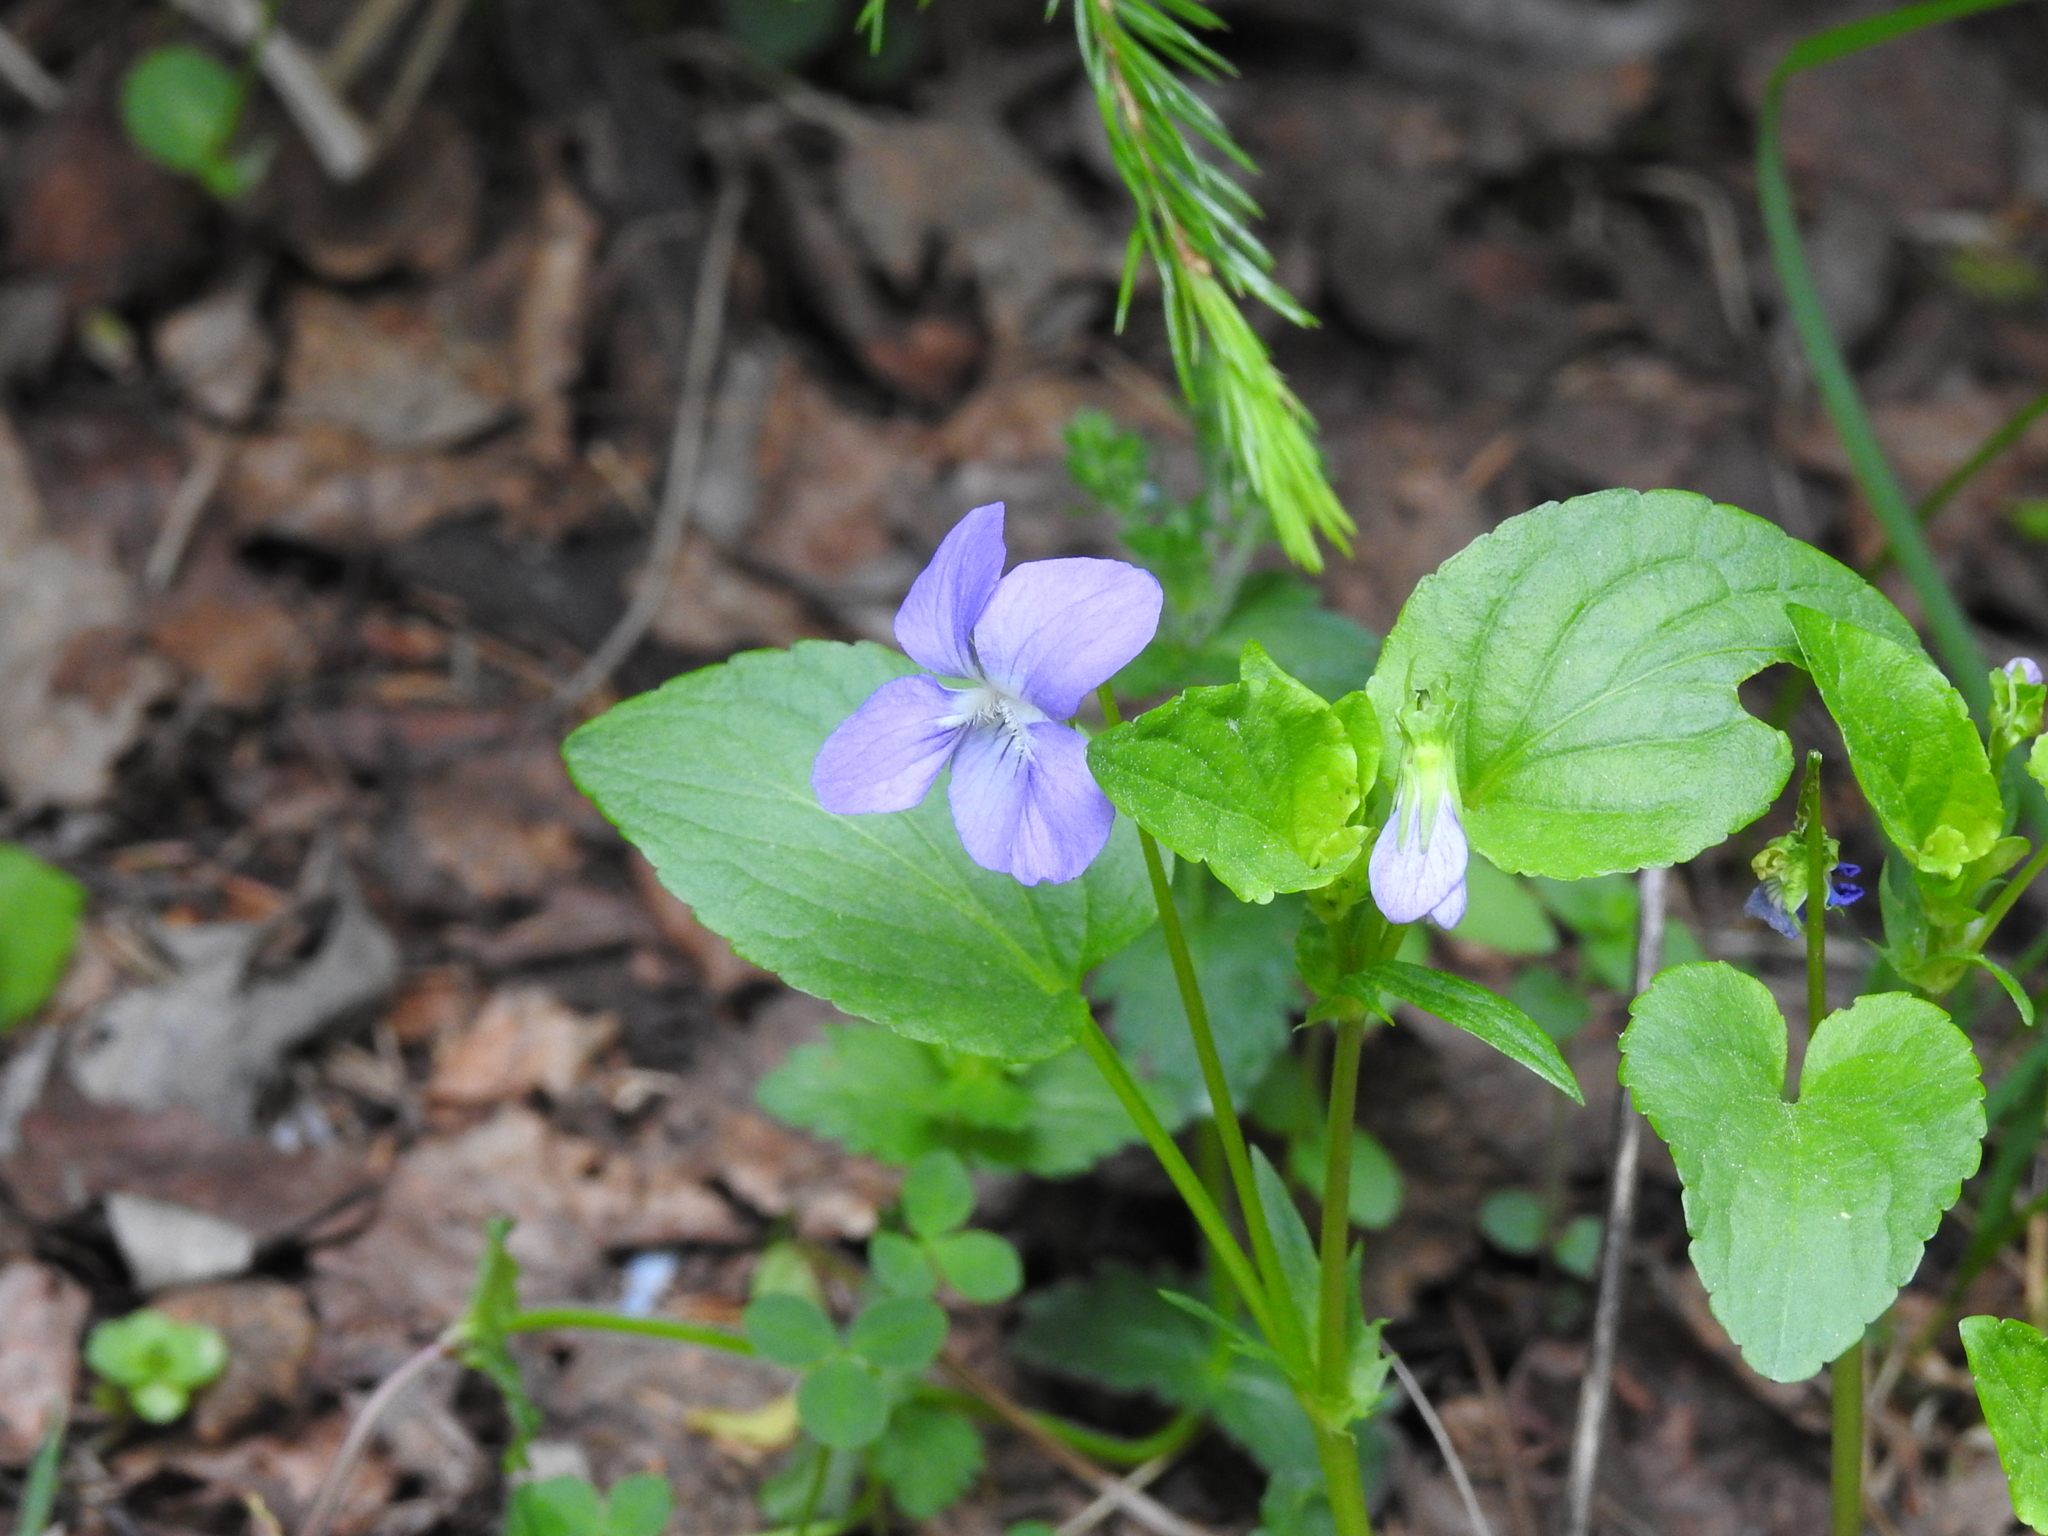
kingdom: Plantae
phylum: Tracheophyta
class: Magnoliopsida
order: Malpighiales
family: Violaceae
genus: Viola
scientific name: Viola
